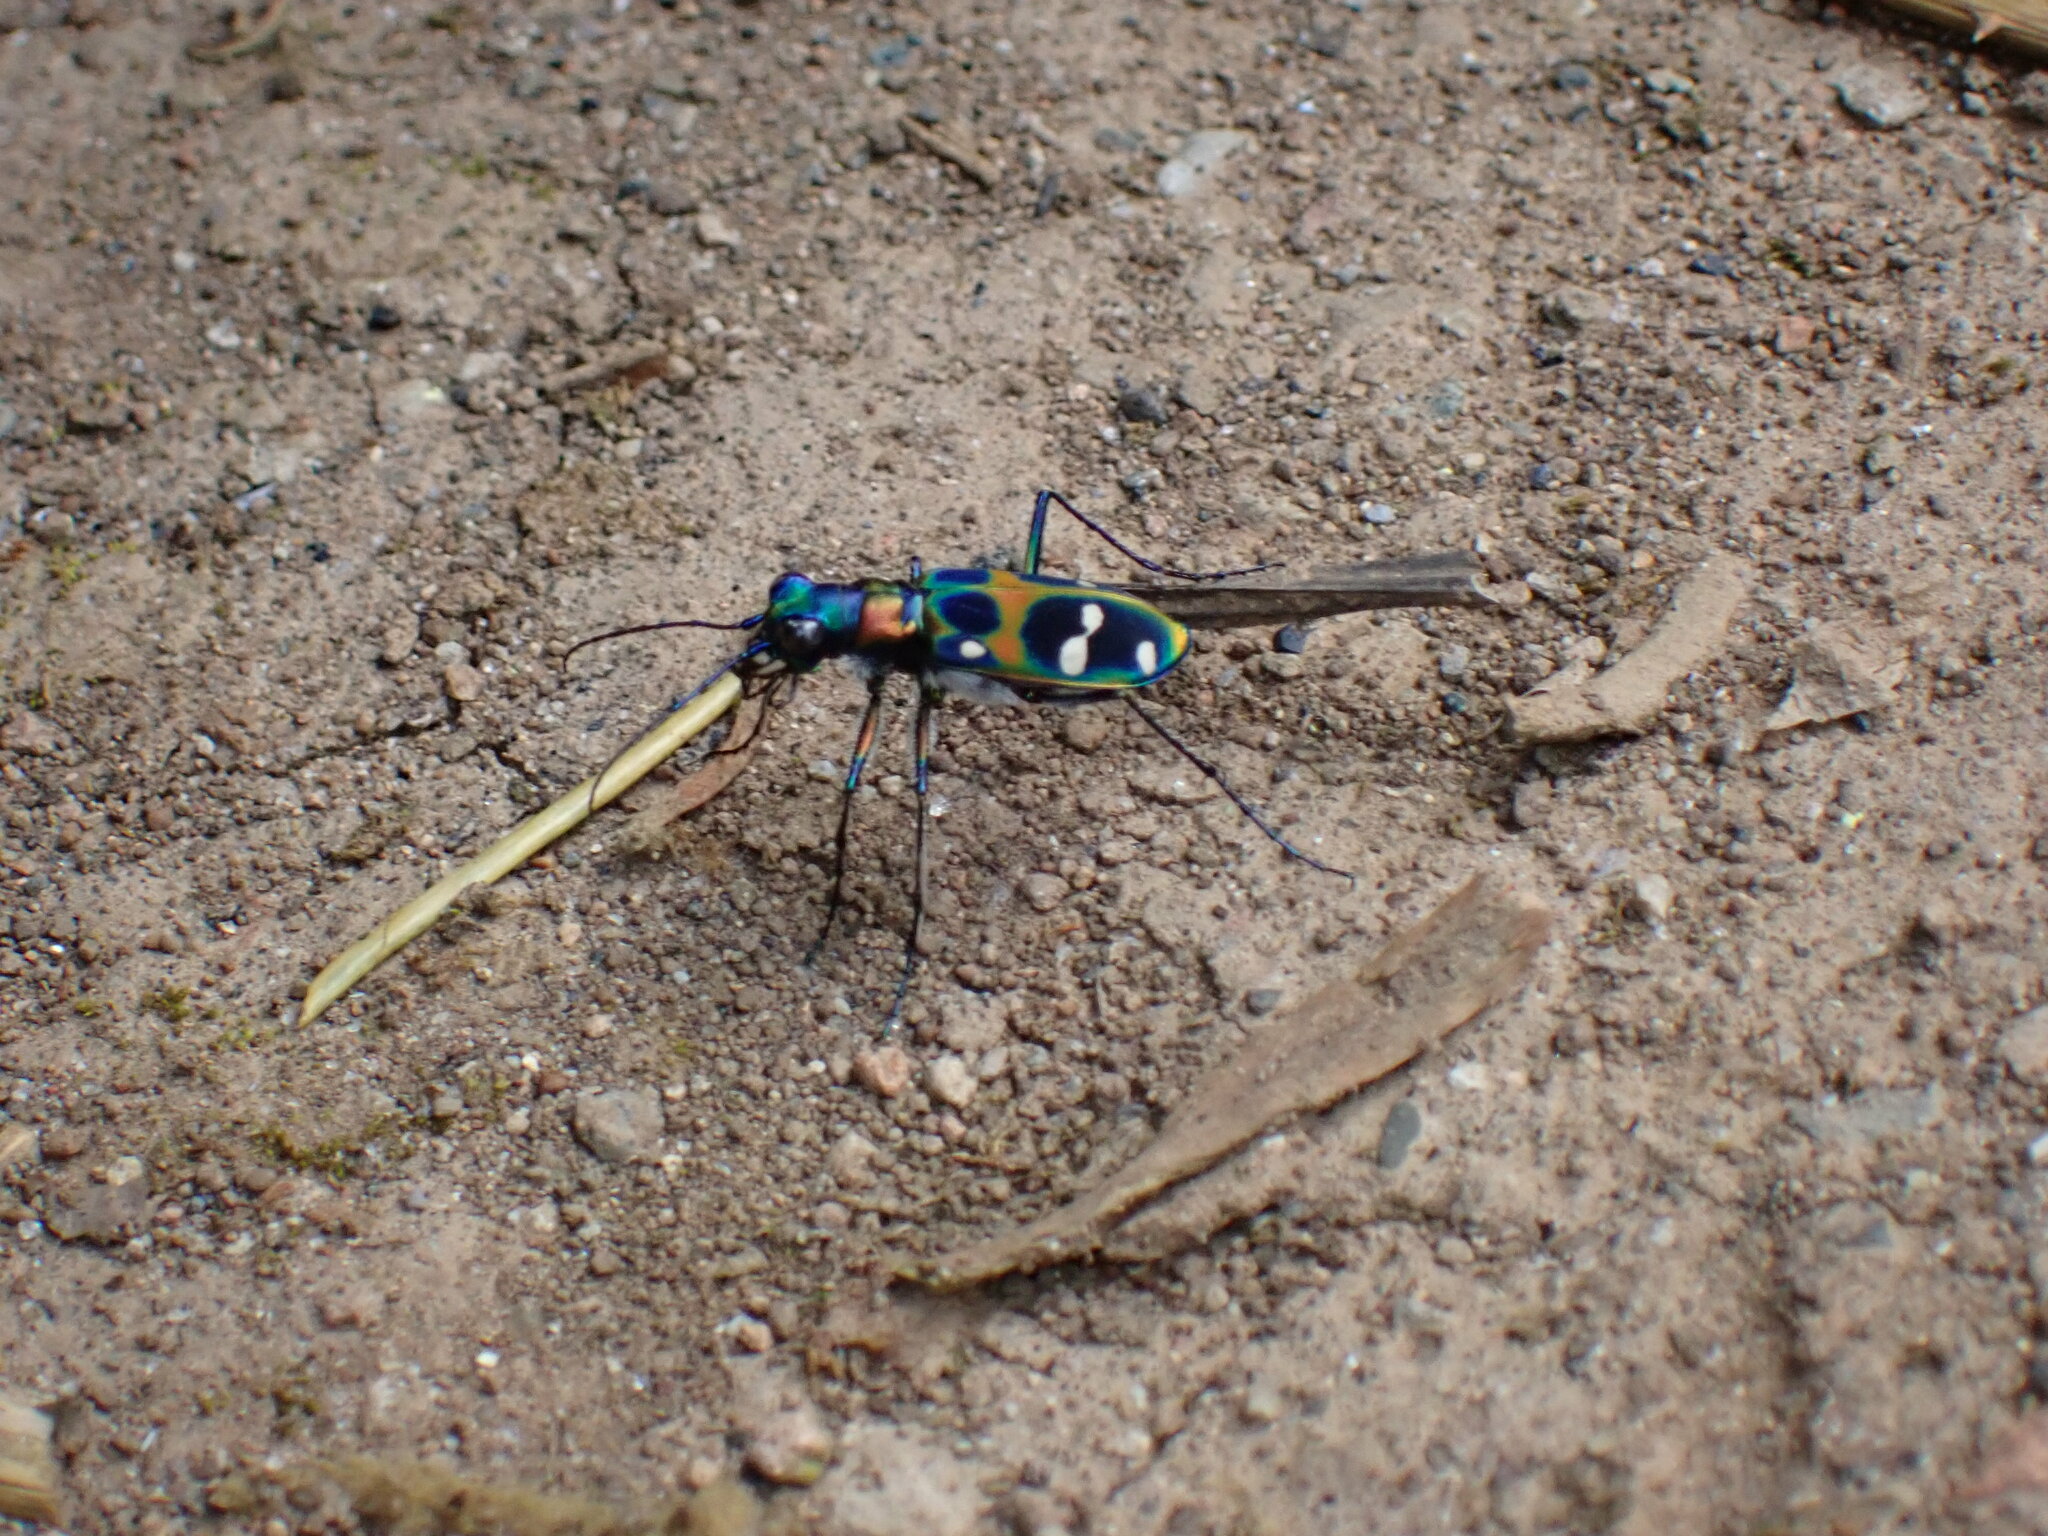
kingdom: Animalia
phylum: Arthropoda
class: Insecta
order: Coleoptera
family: Carabidae
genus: Cicindela
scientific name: Cicindela chinensis
